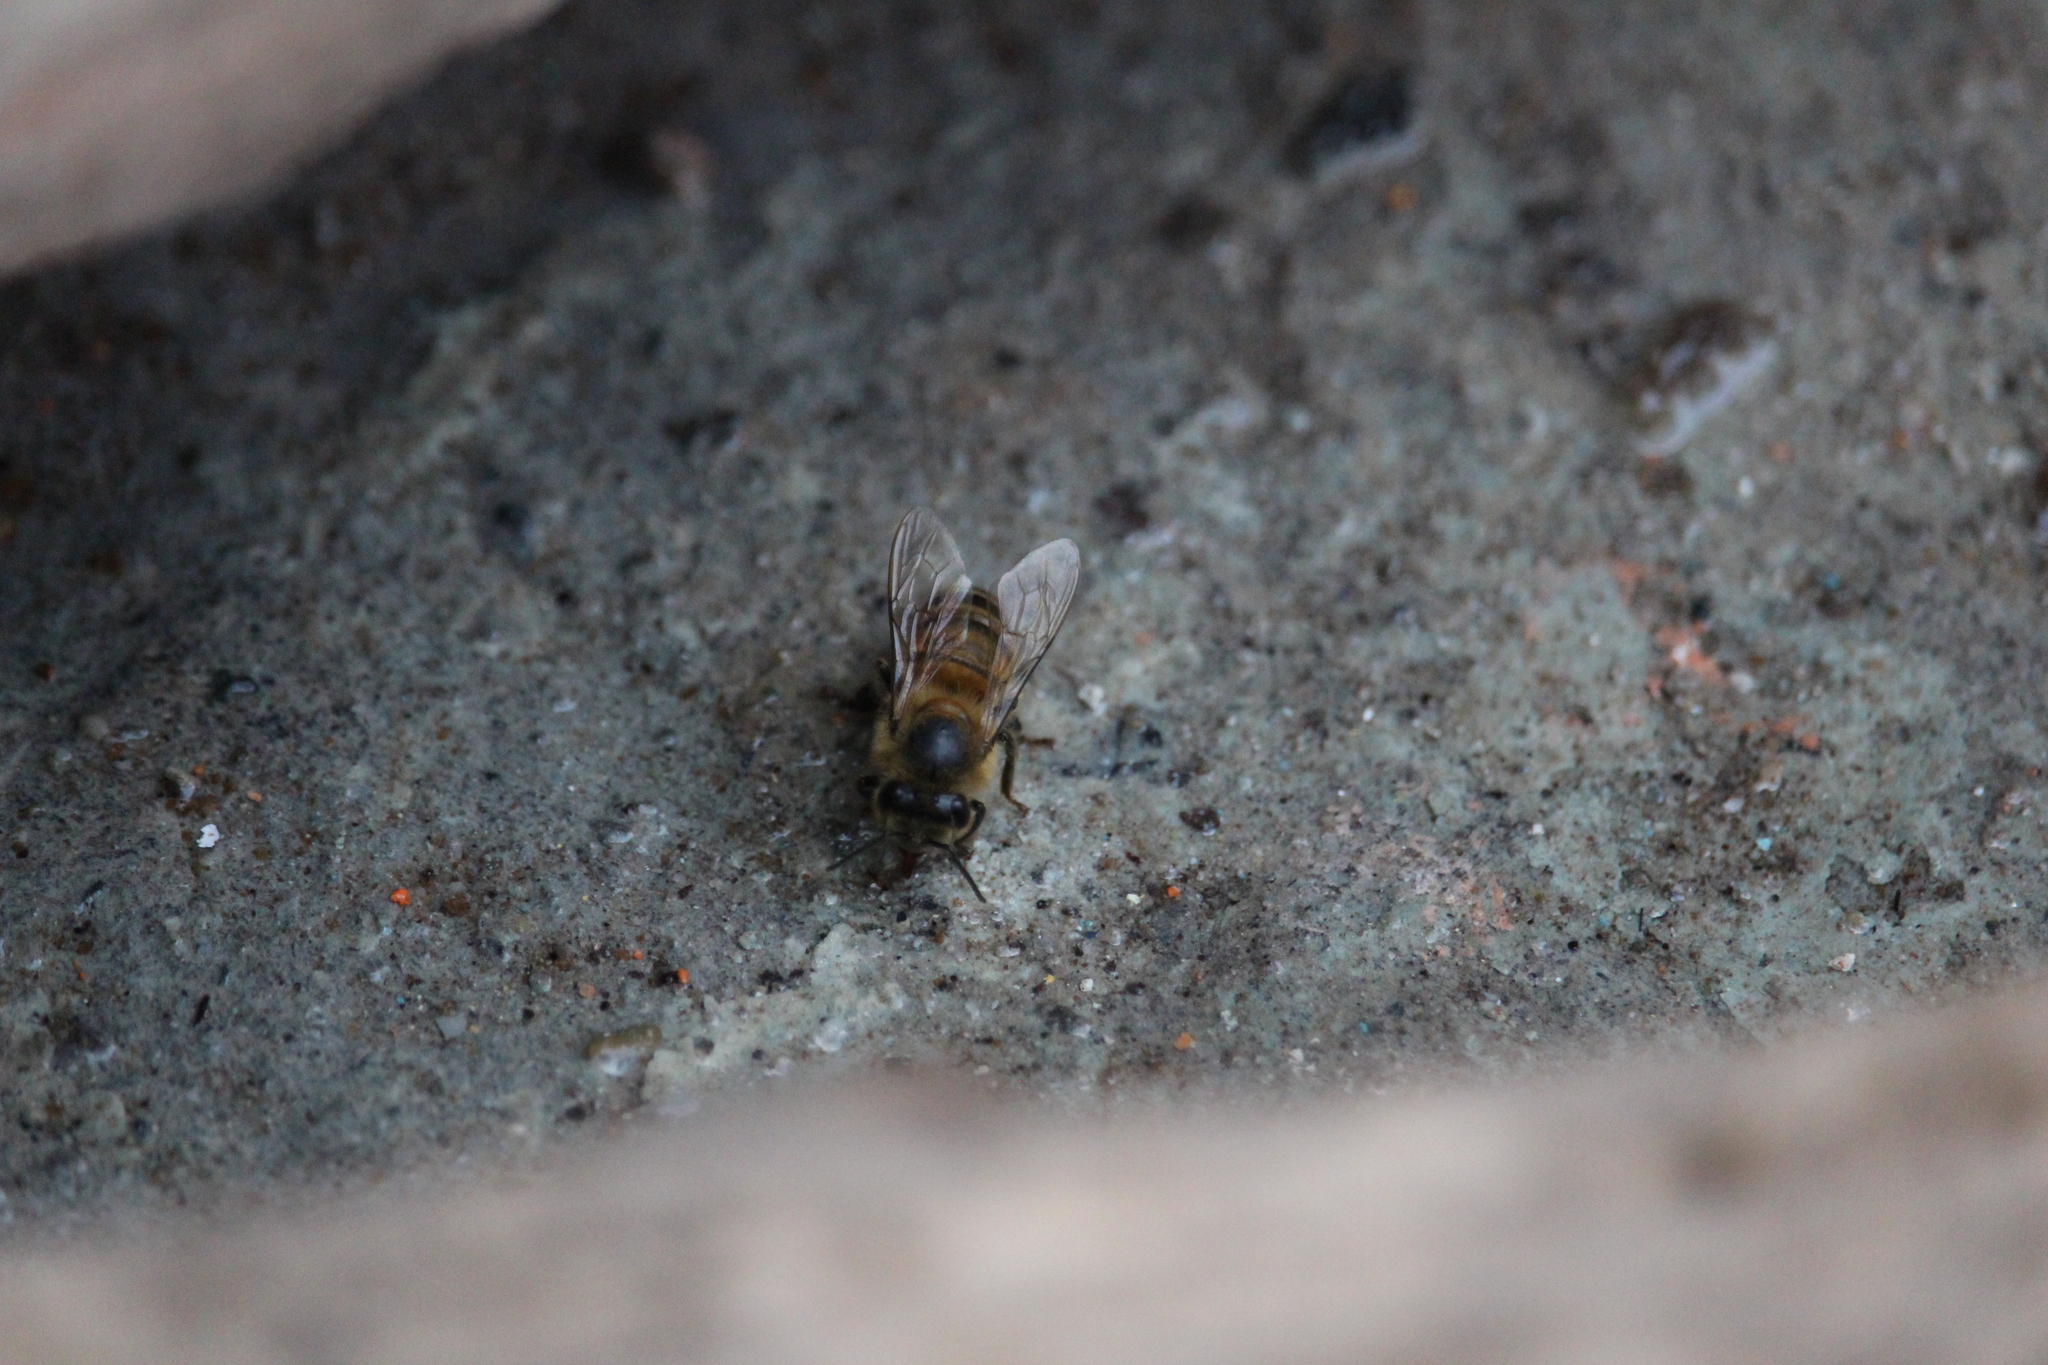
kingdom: Animalia
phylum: Arthropoda
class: Insecta
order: Hymenoptera
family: Apidae
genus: Apis
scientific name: Apis mellifera
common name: Honey bee
